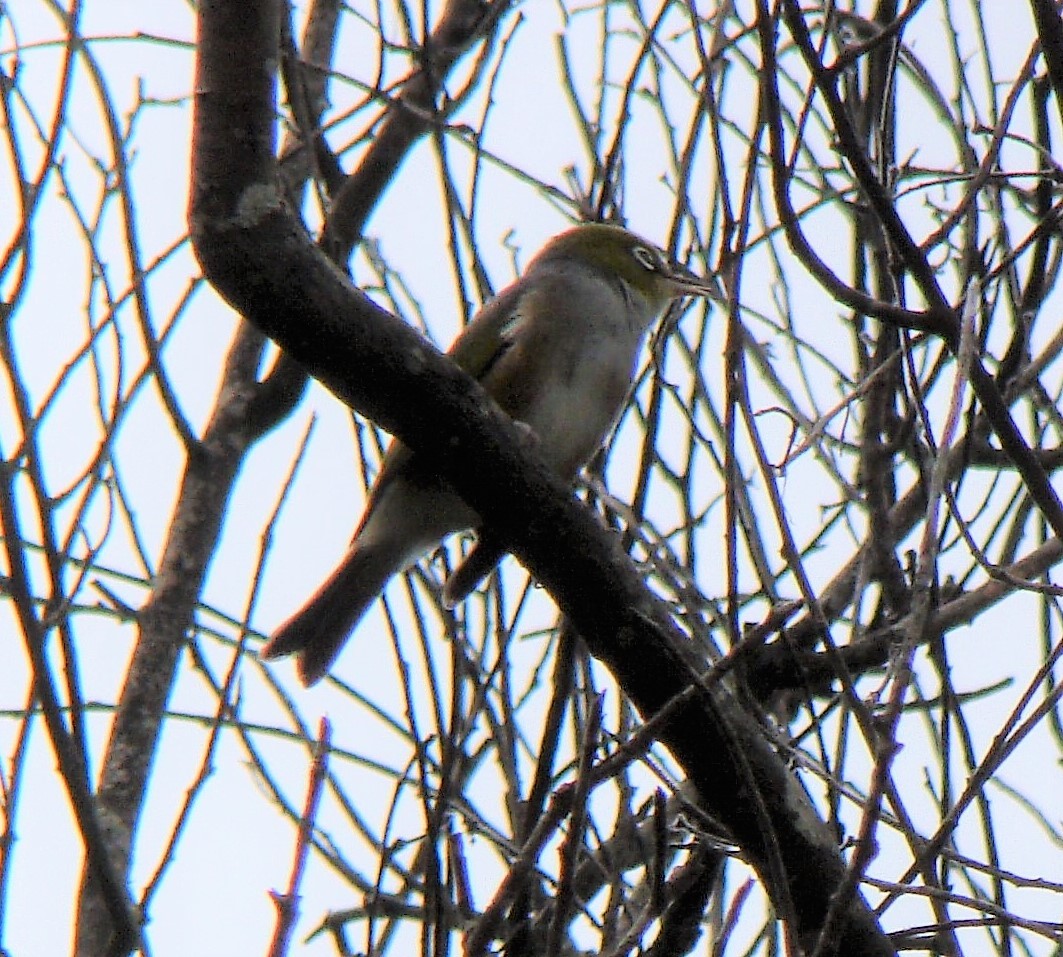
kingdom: Animalia
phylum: Chordata
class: Aves
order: Passeriformes
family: Zosteropidae
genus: Zosterops
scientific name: Zosterops lateralis
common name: Silvereye
